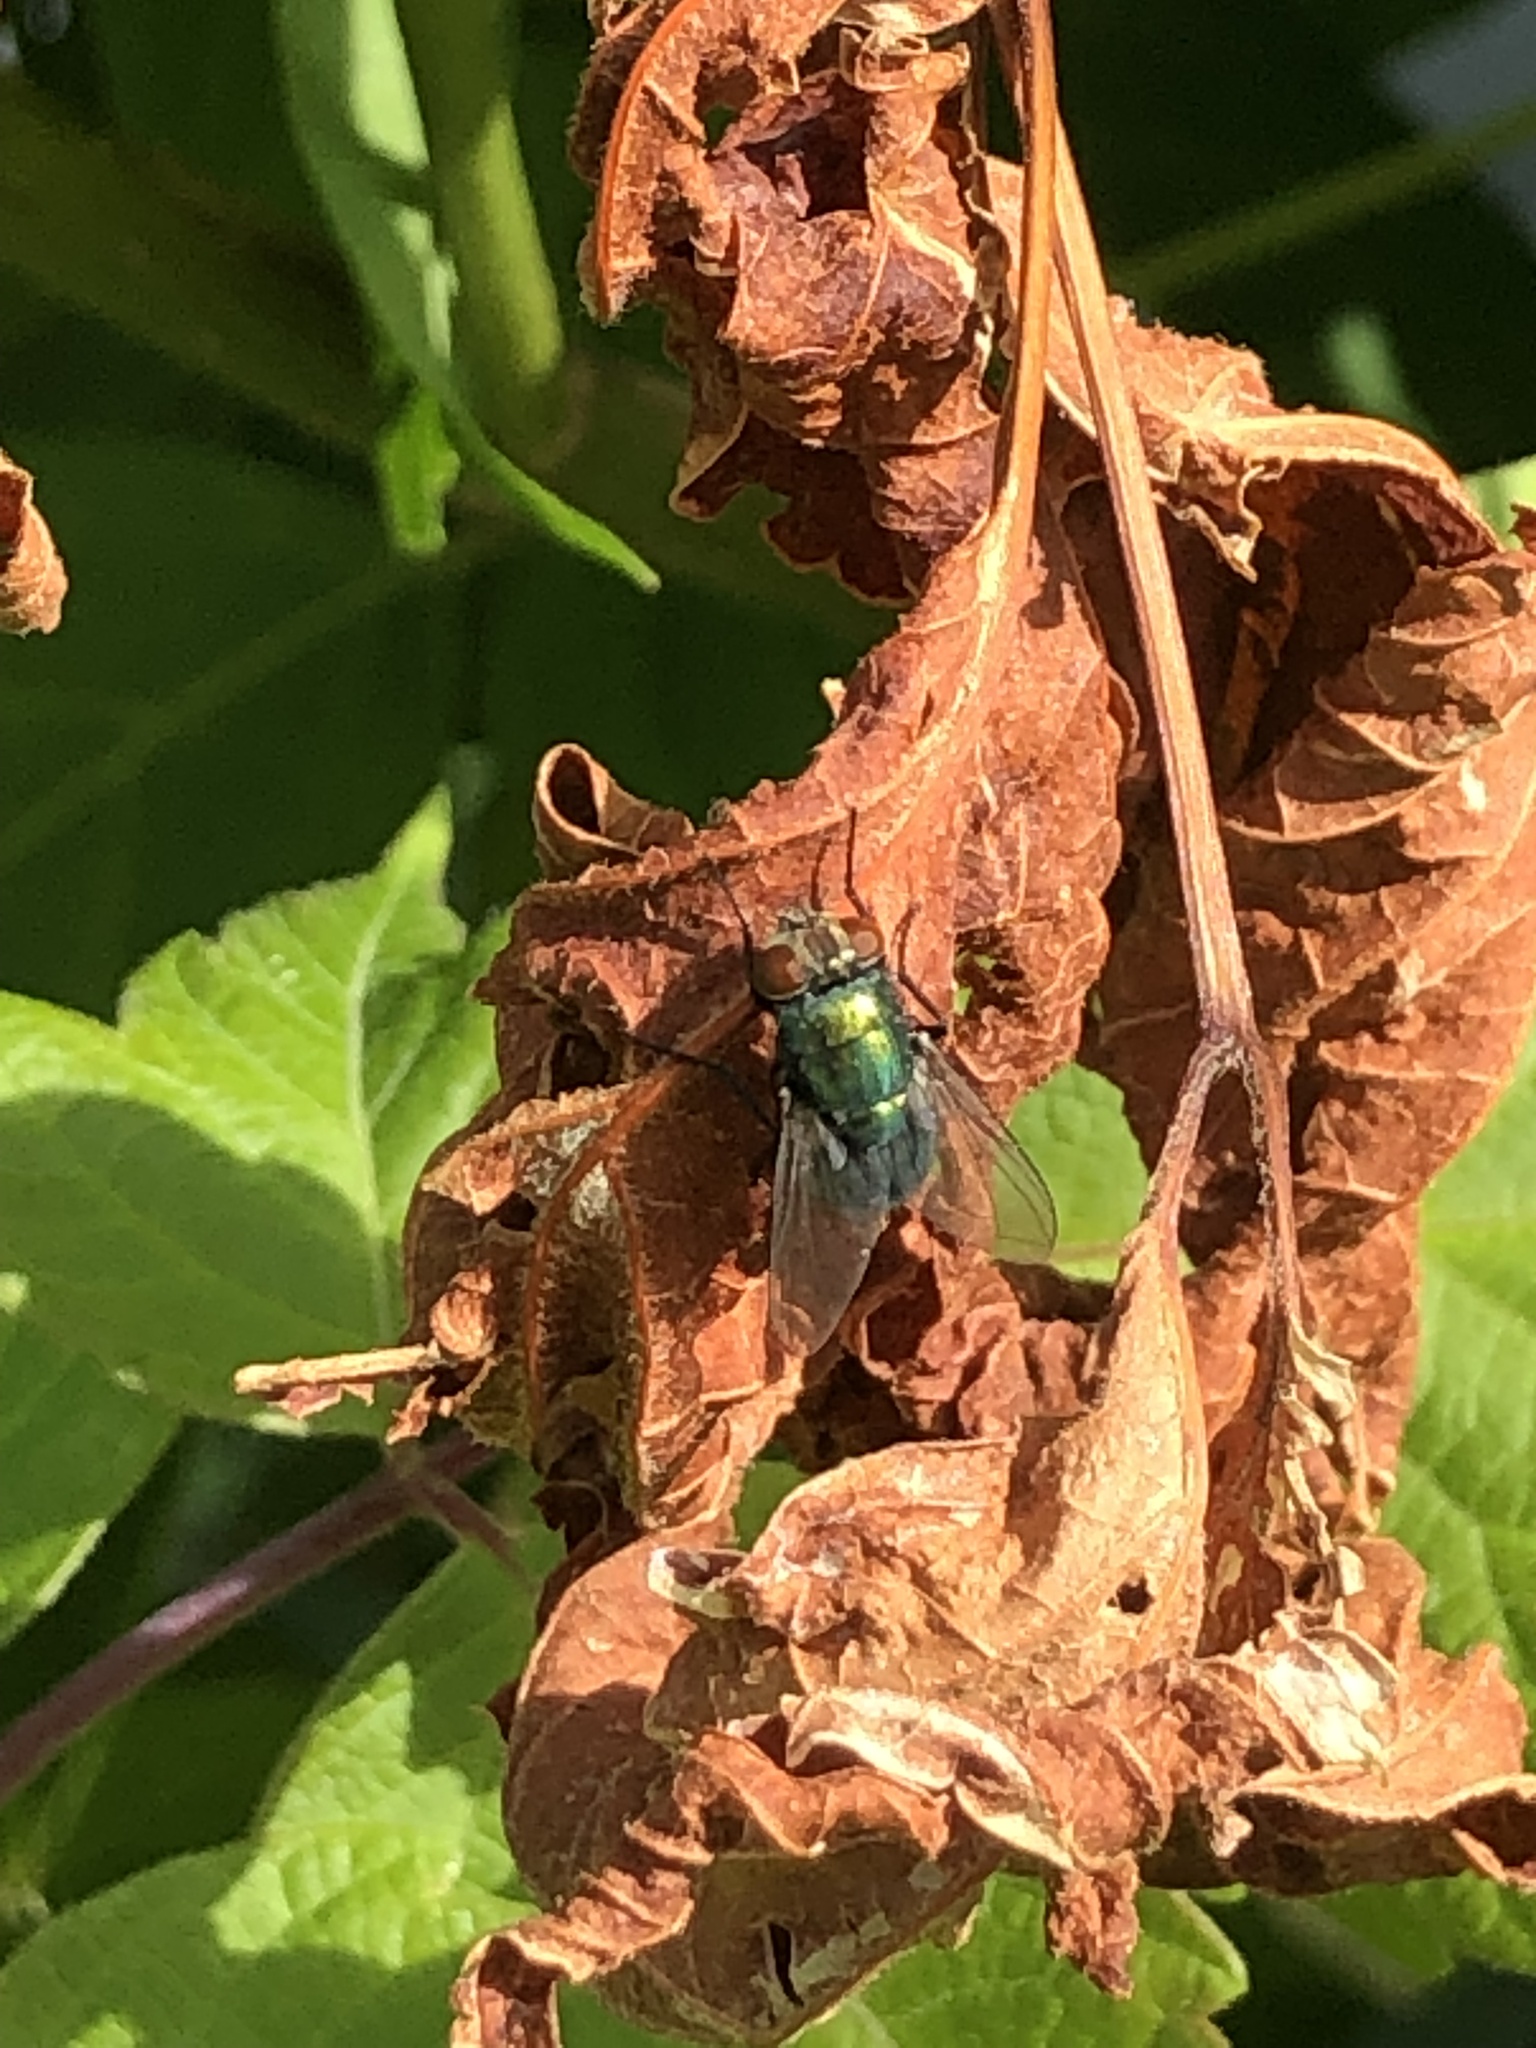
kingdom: Animalia
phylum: Arthropoda
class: Insecta
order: Diptera
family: Calliphoridae
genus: Lucilia
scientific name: Lucilia sericata
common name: Blow fly
